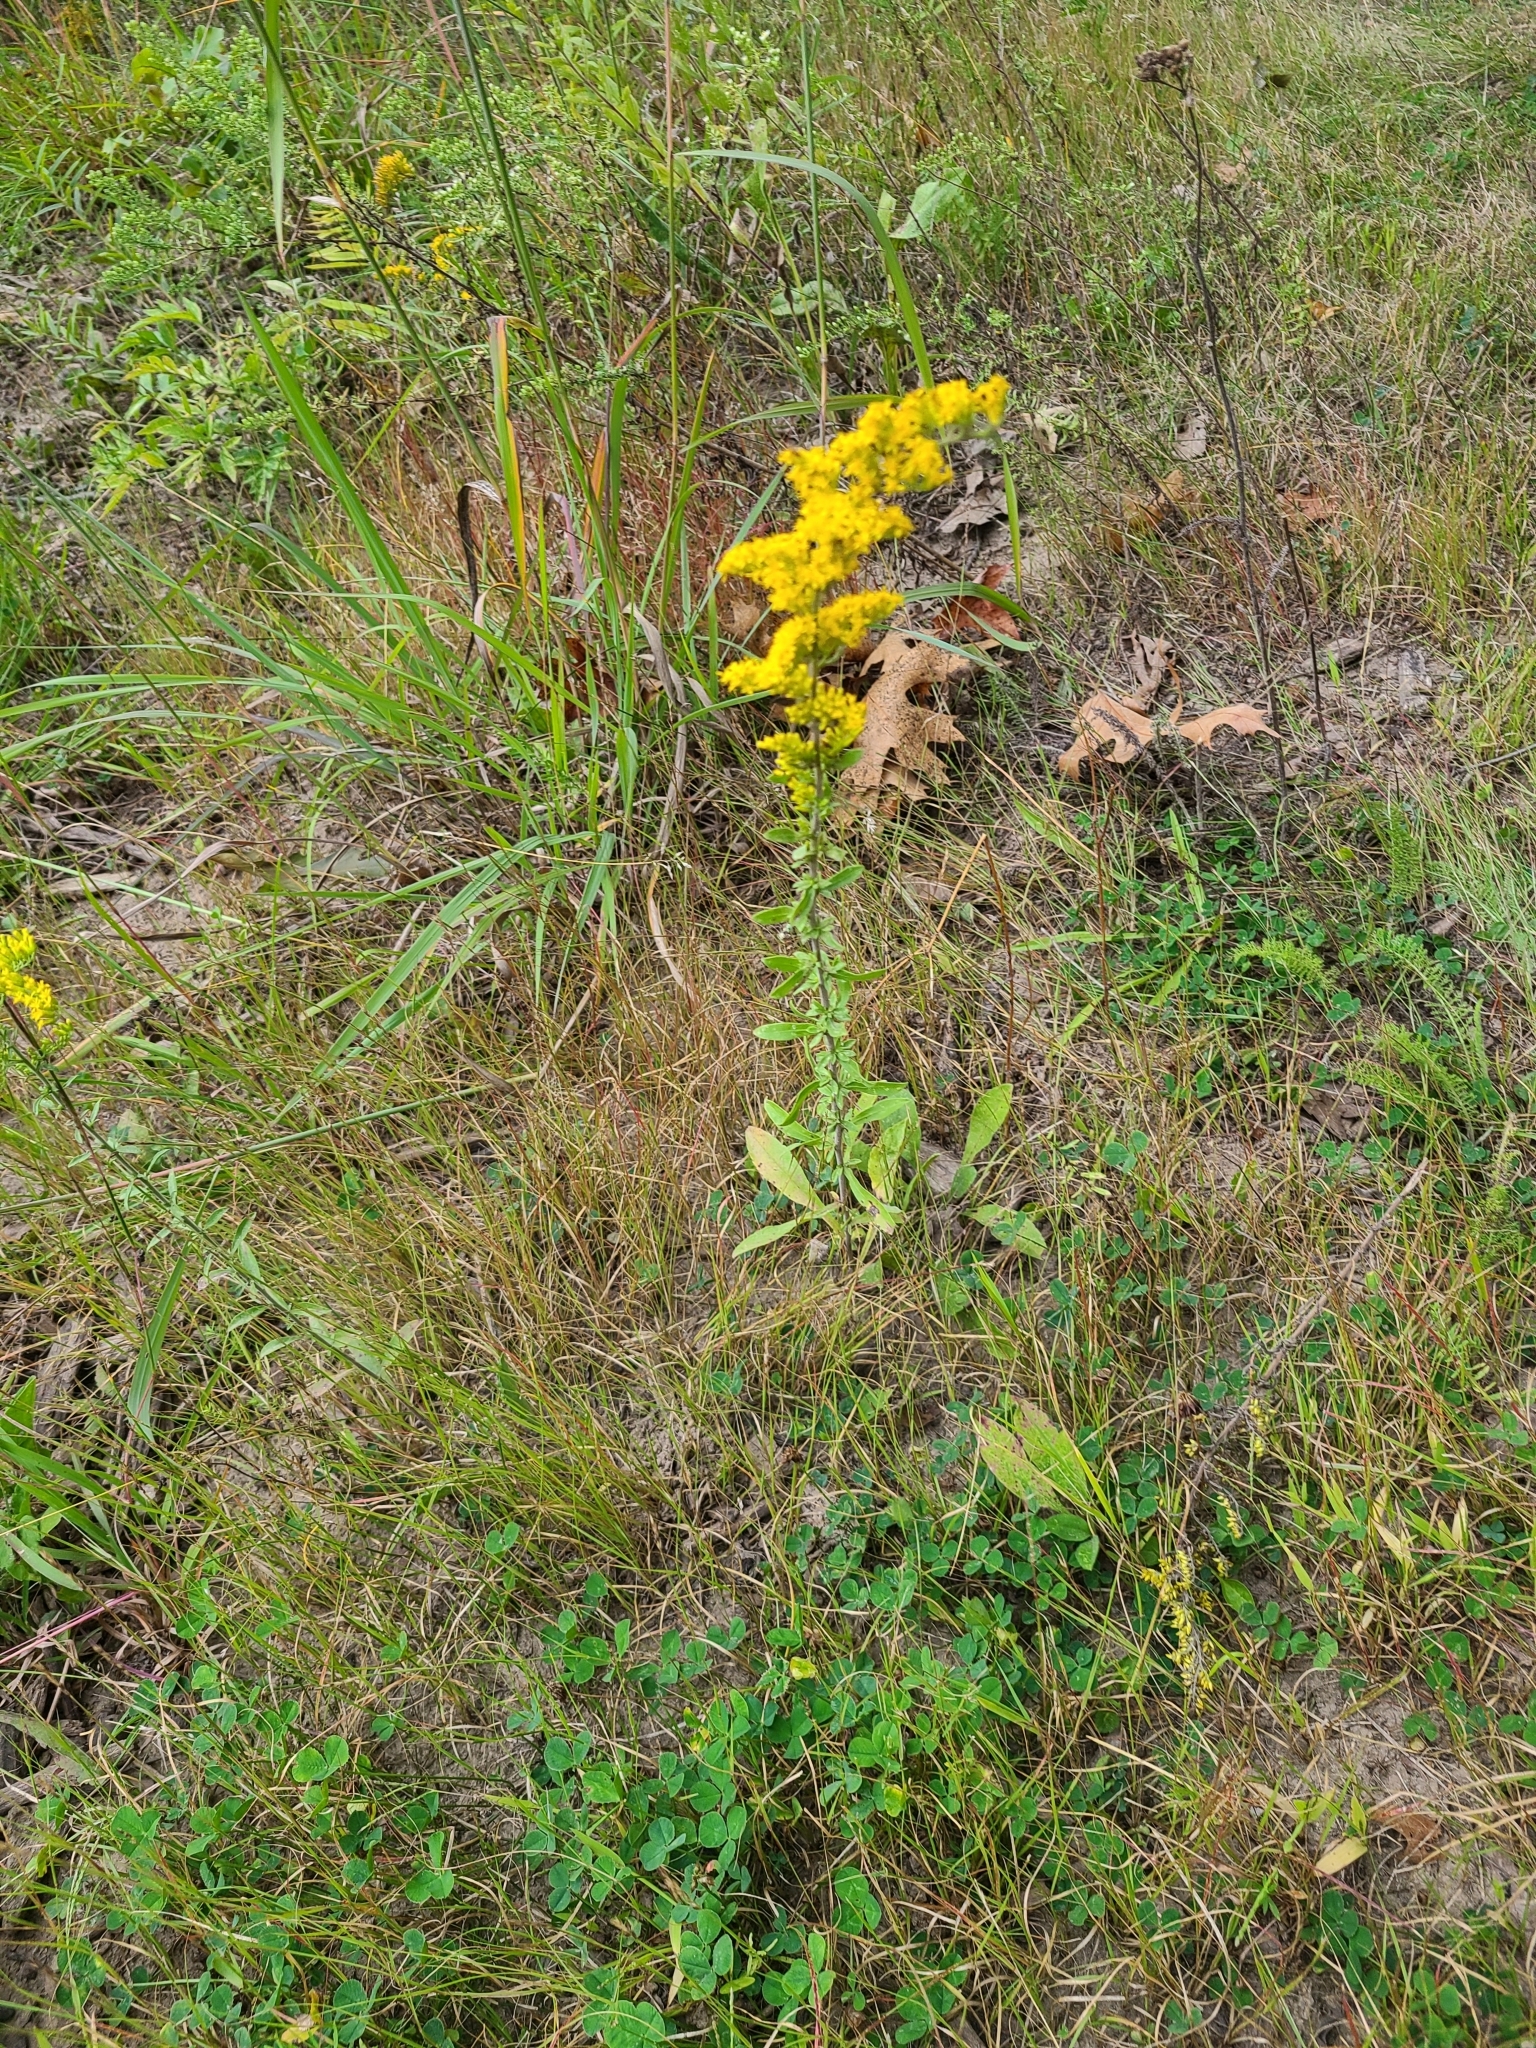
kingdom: Plantae
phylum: Tracheophyta
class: Magnoliopsida
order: Asterales
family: Asteraceae
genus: Solidago
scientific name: Solidago nemoralis
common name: Grey goldenrod
